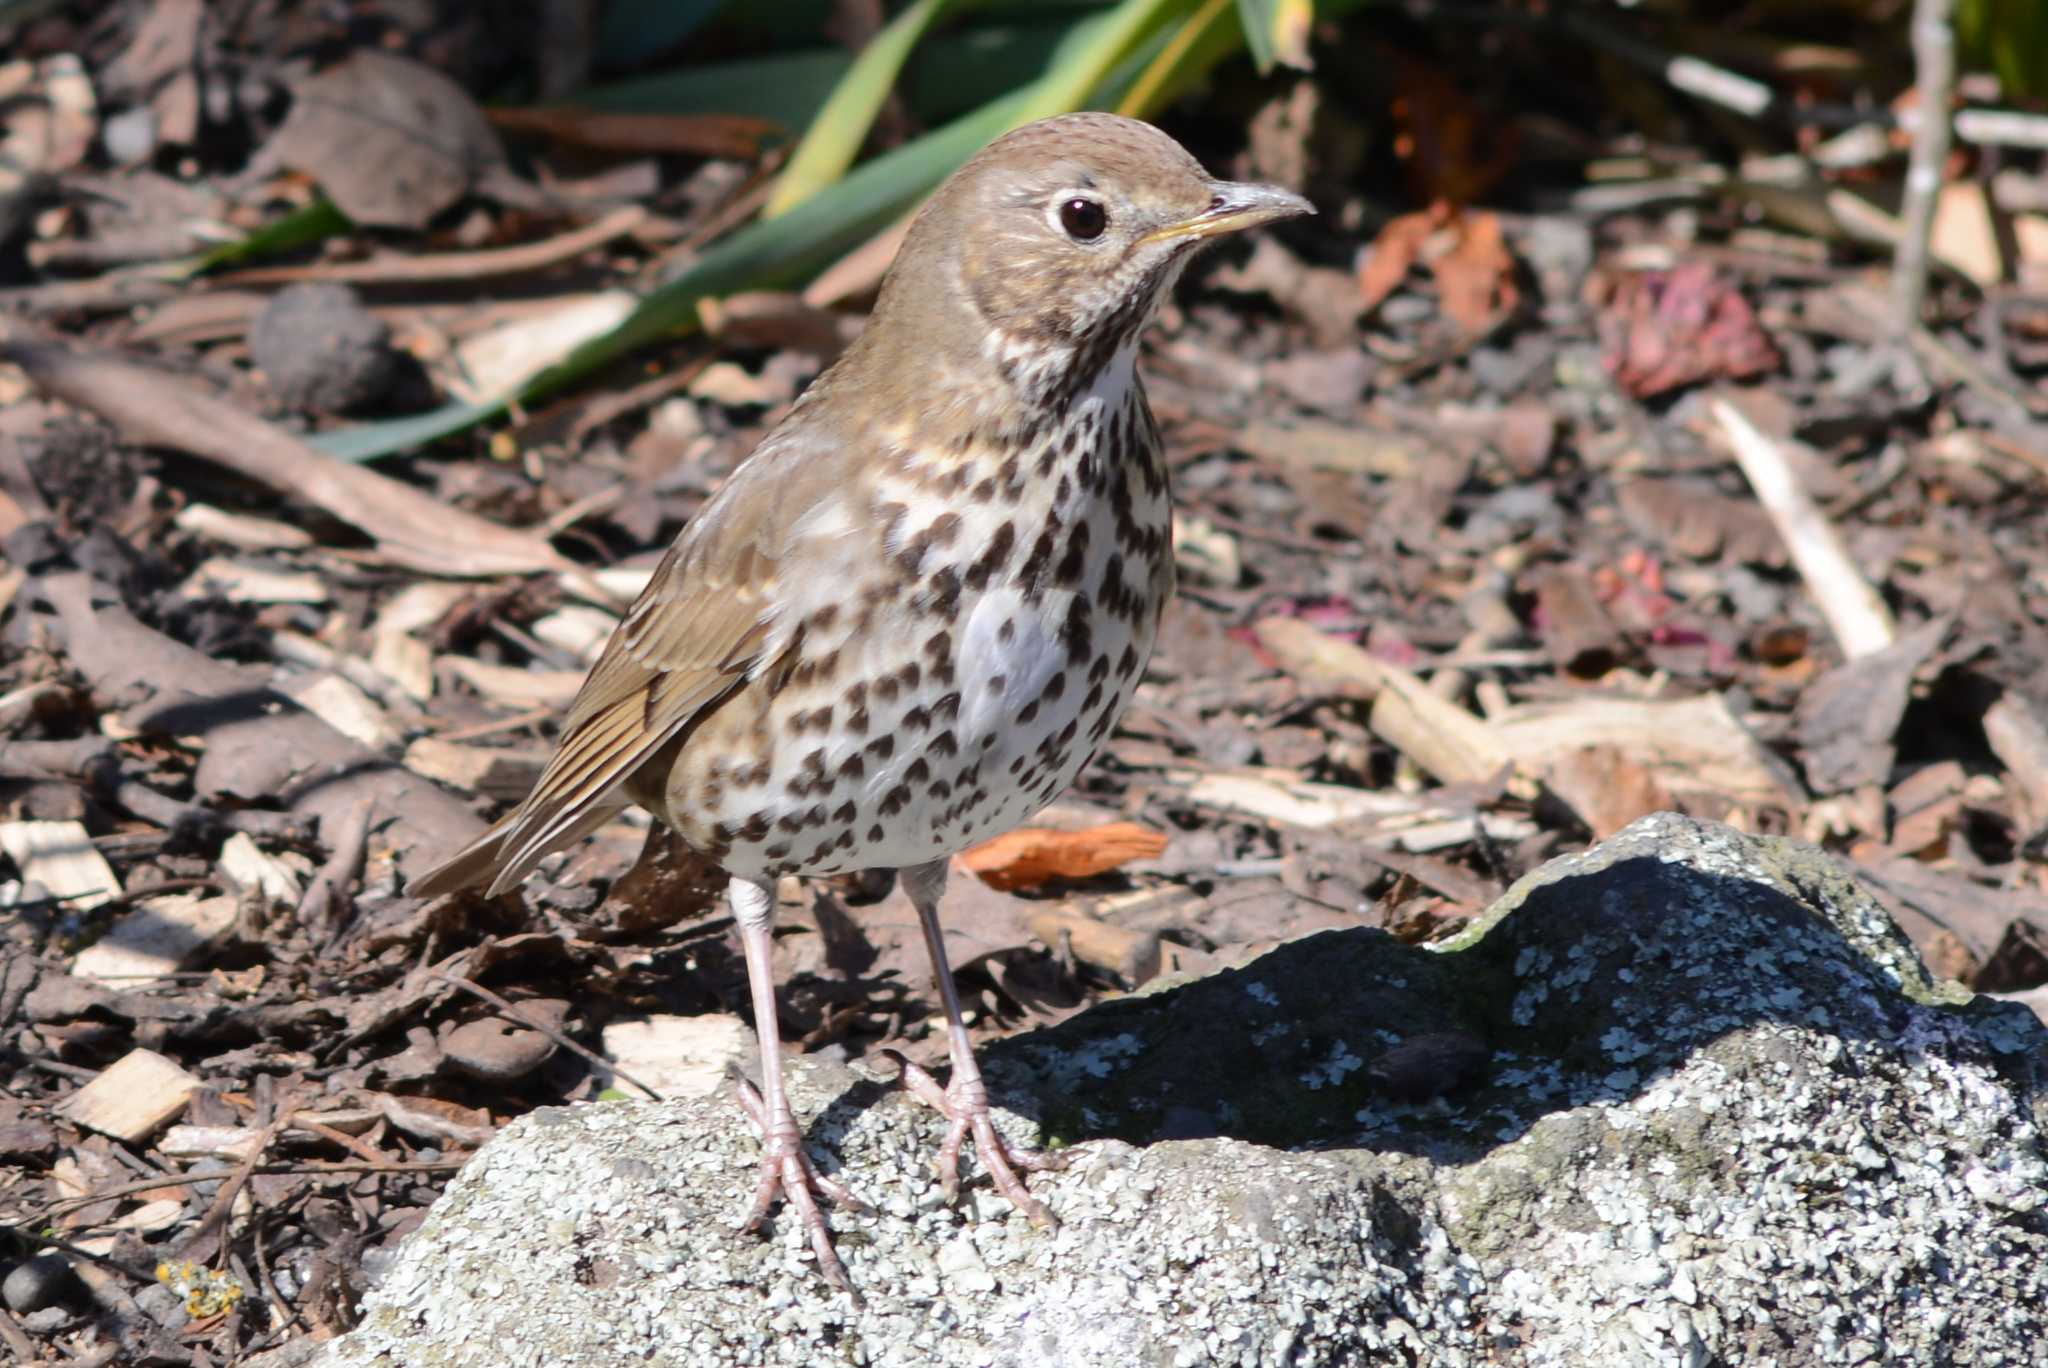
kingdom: Animalia
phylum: Chordata
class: Aves
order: Passeriformes
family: Turdidae
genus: Turdus
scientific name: Turdus philomelos
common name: Song thrush
